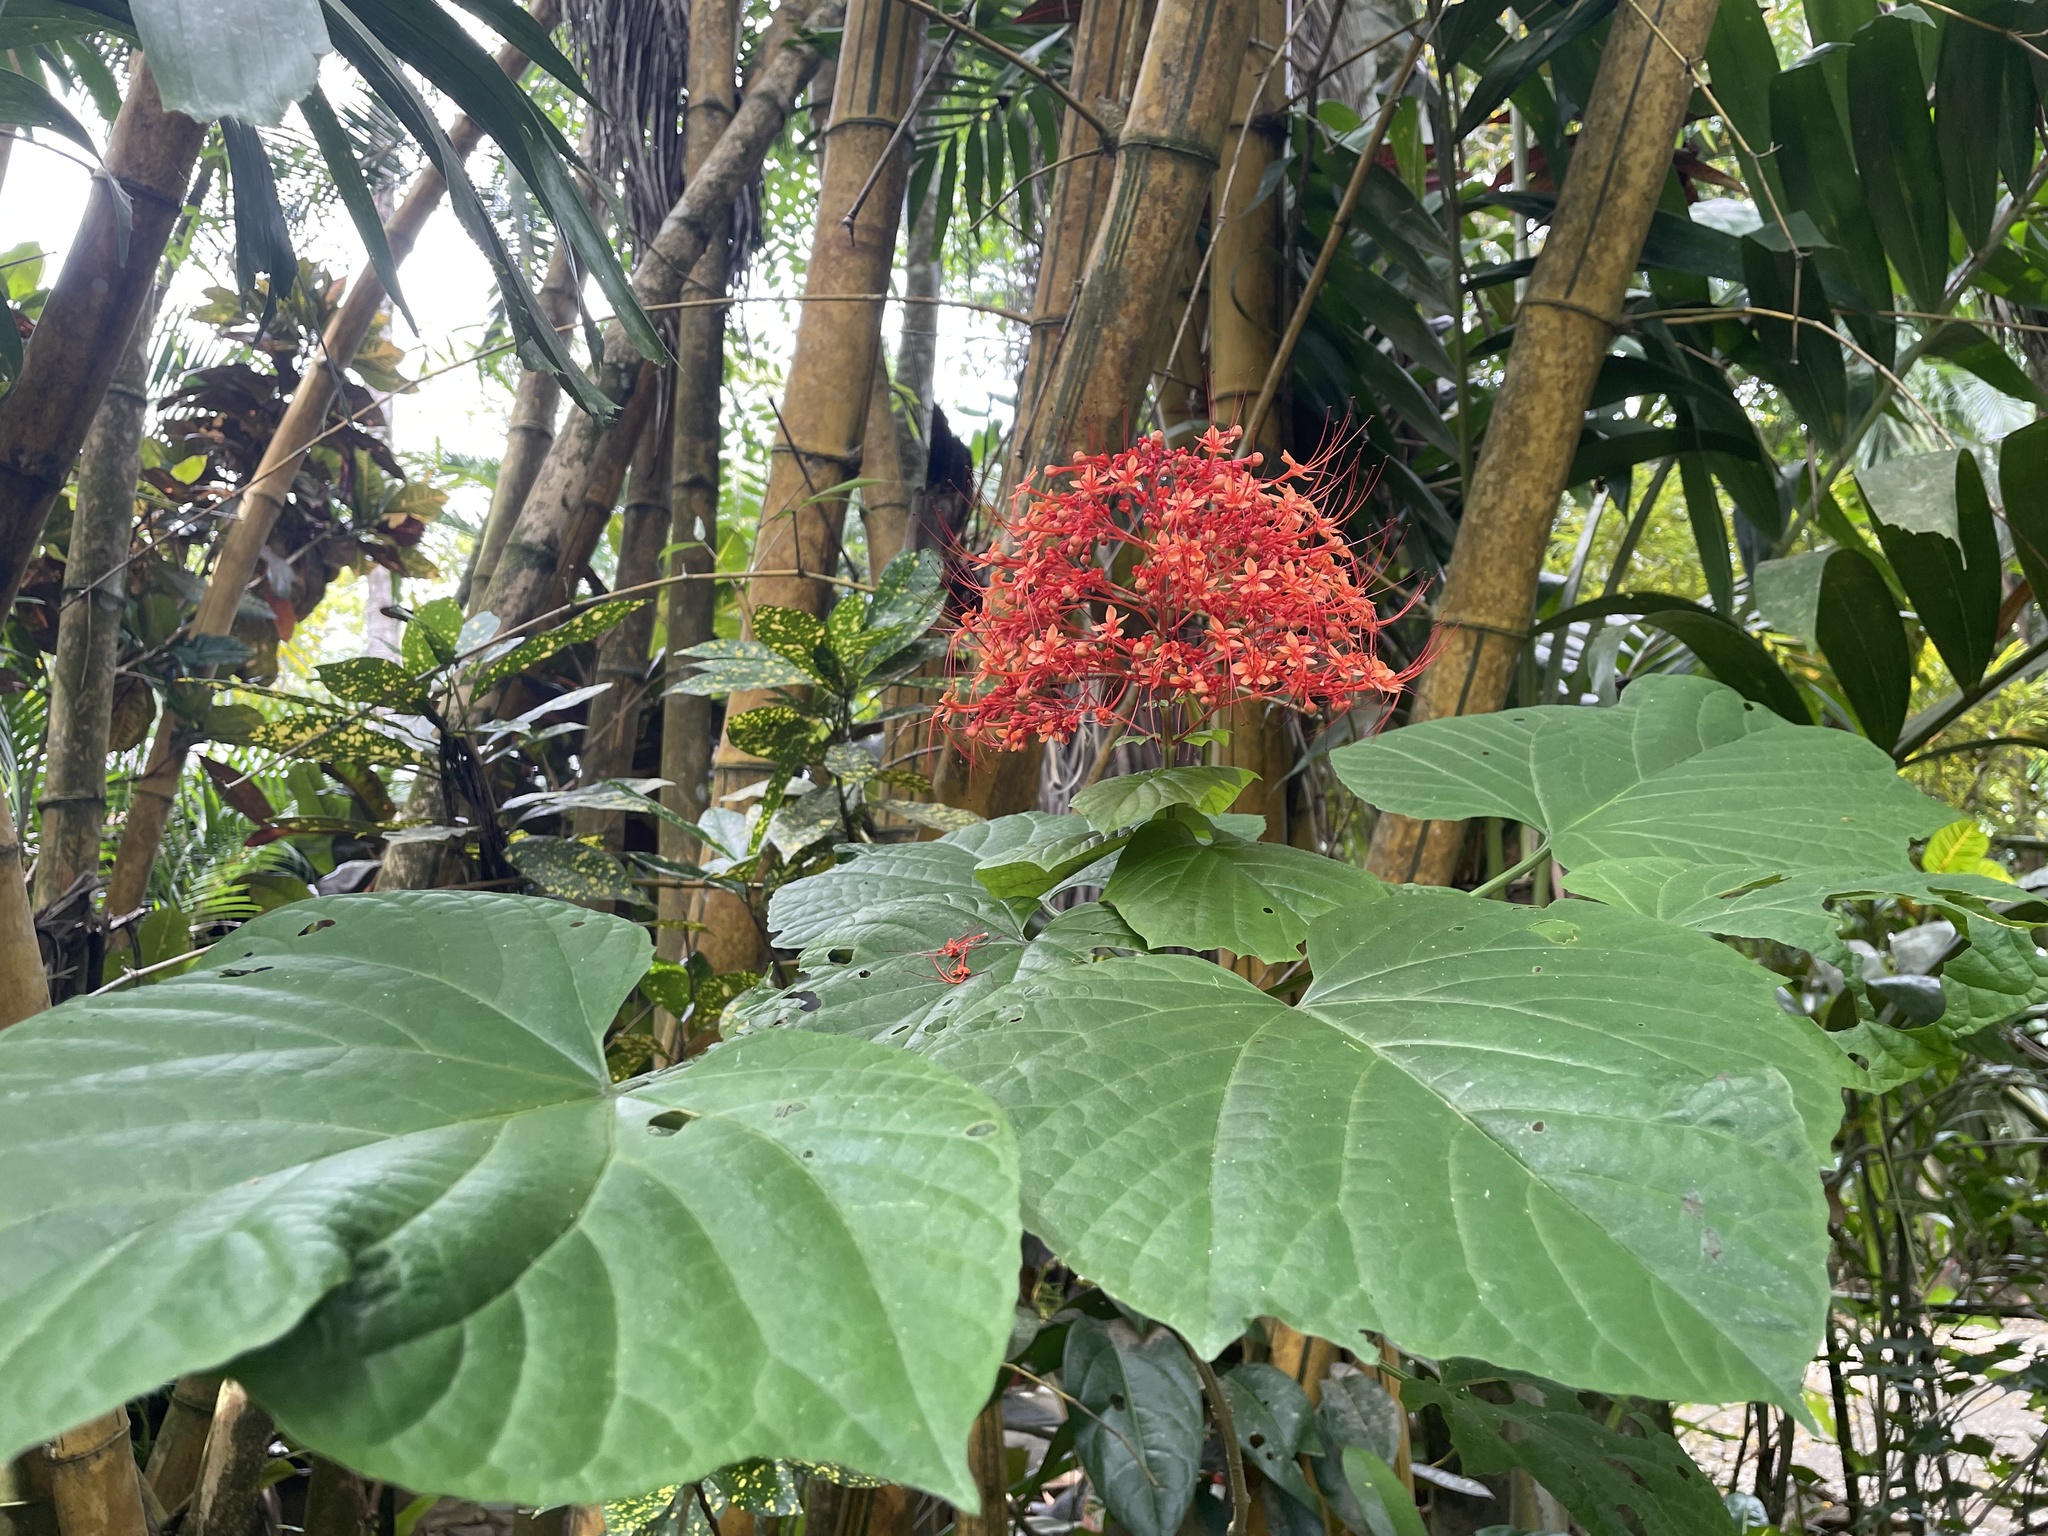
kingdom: Plantae
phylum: Tracheophyta
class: Magnoliopsida
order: Lamiales
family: Lamiaceae
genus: Clerodendrum
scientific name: Clerodendrum paniculatum
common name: Pagoda-flower
